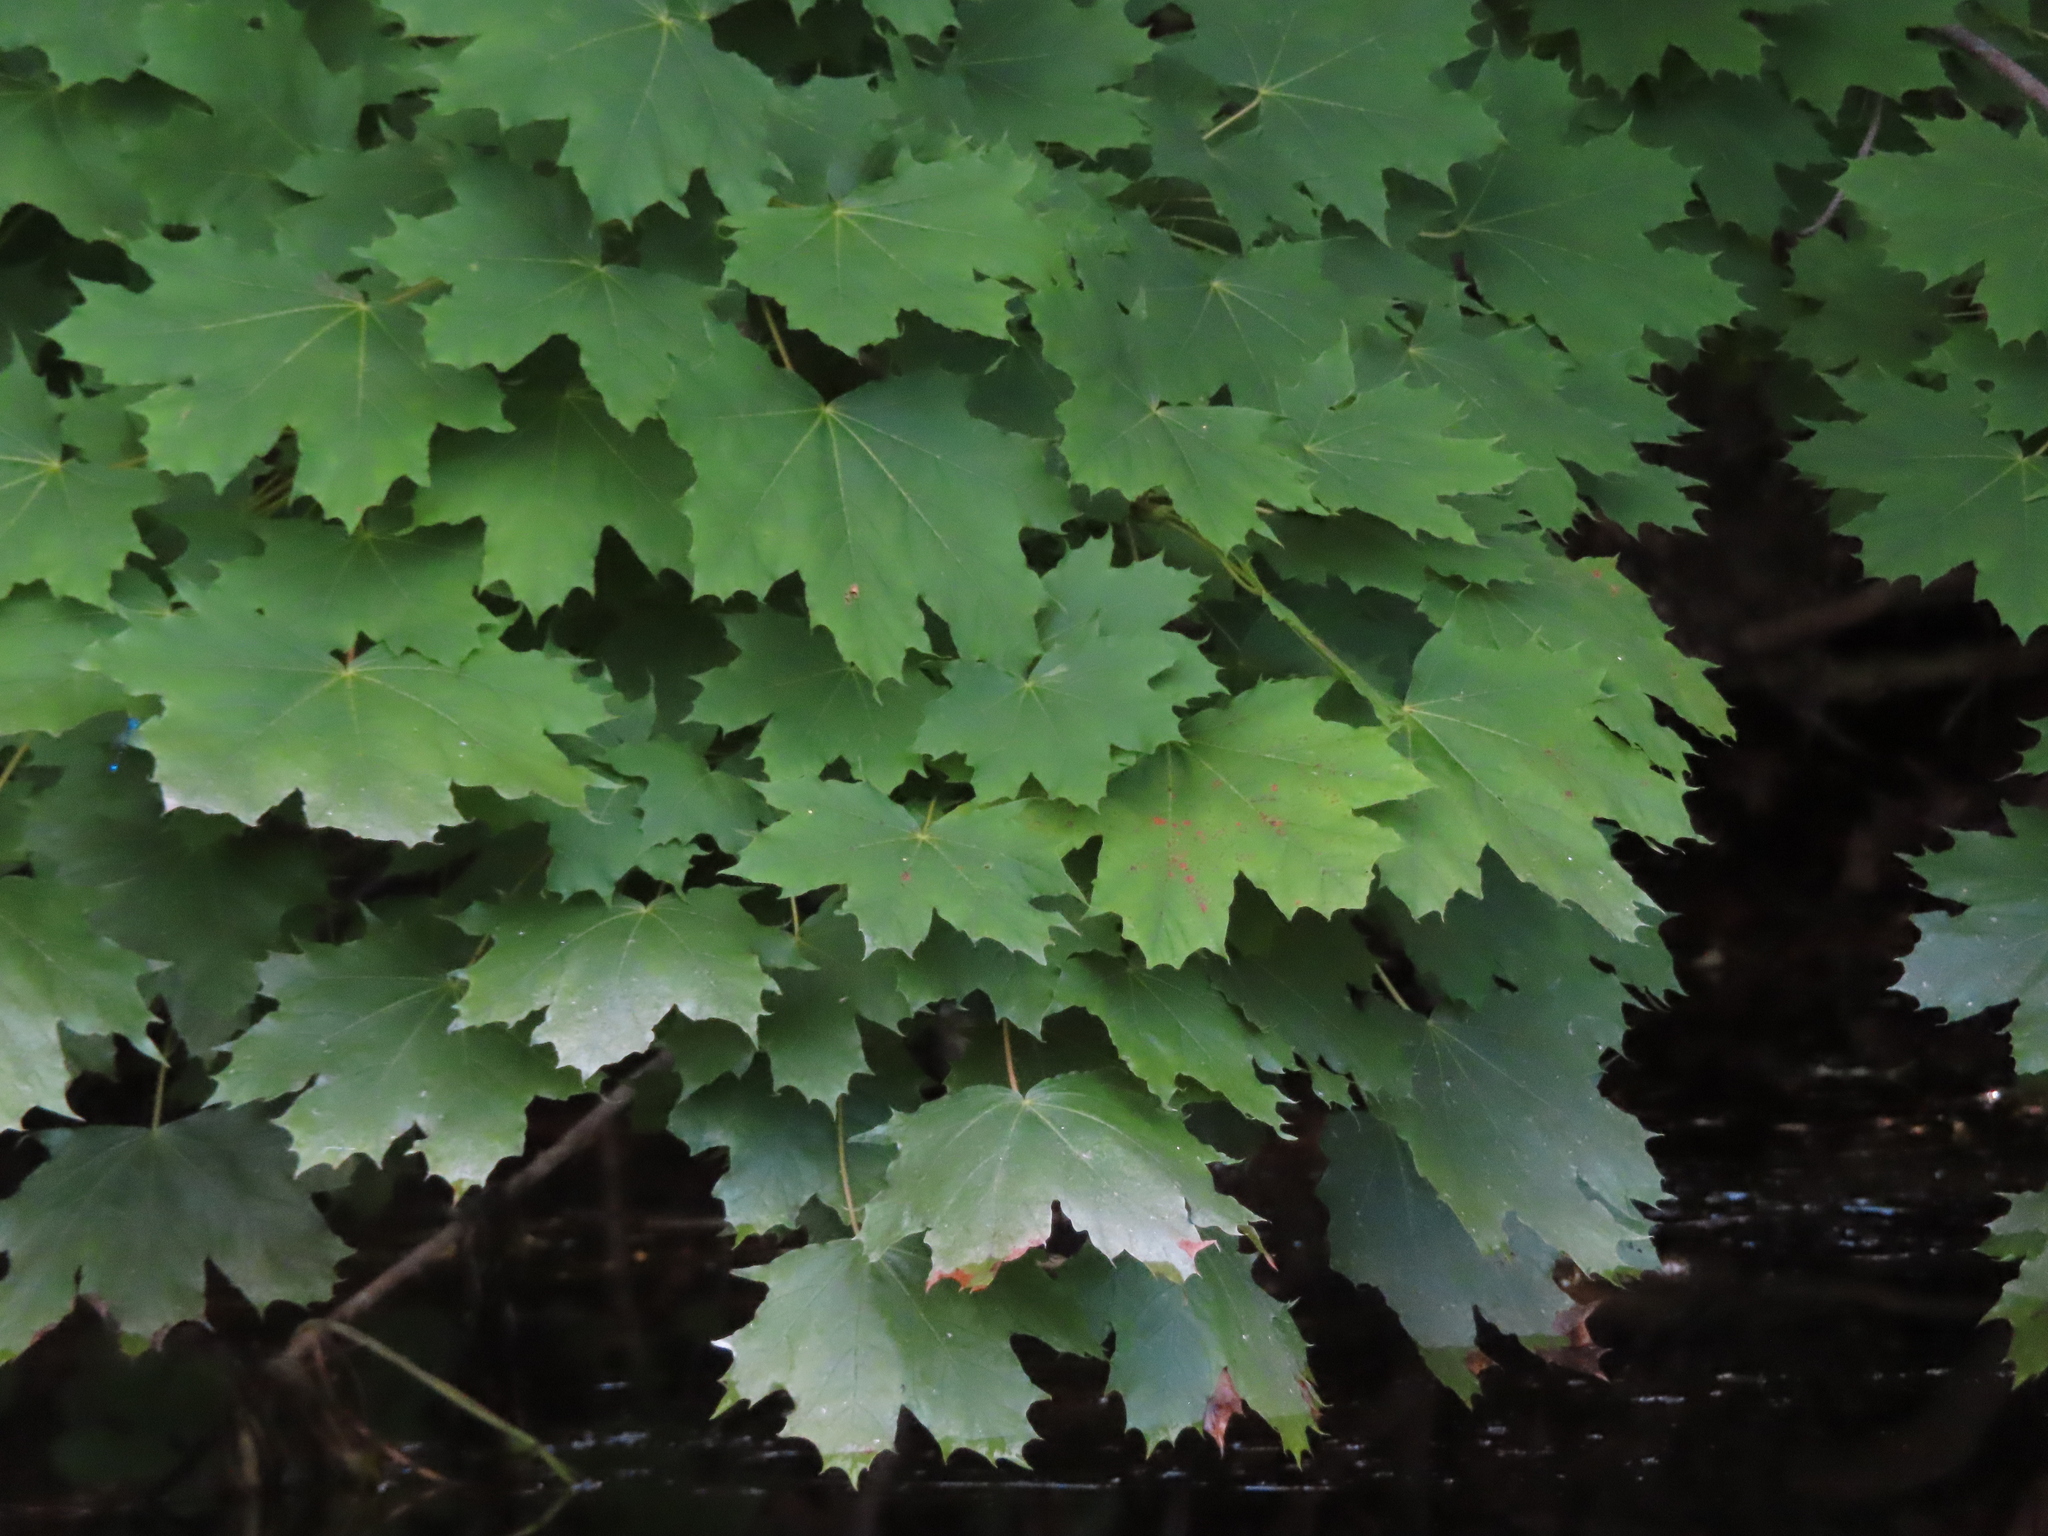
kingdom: Plantae
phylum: Tracheophyta
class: Magnoliopsida
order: Sapindales
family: Sapindaceae
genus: Acer
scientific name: Acer platanoides
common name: Norway maple
